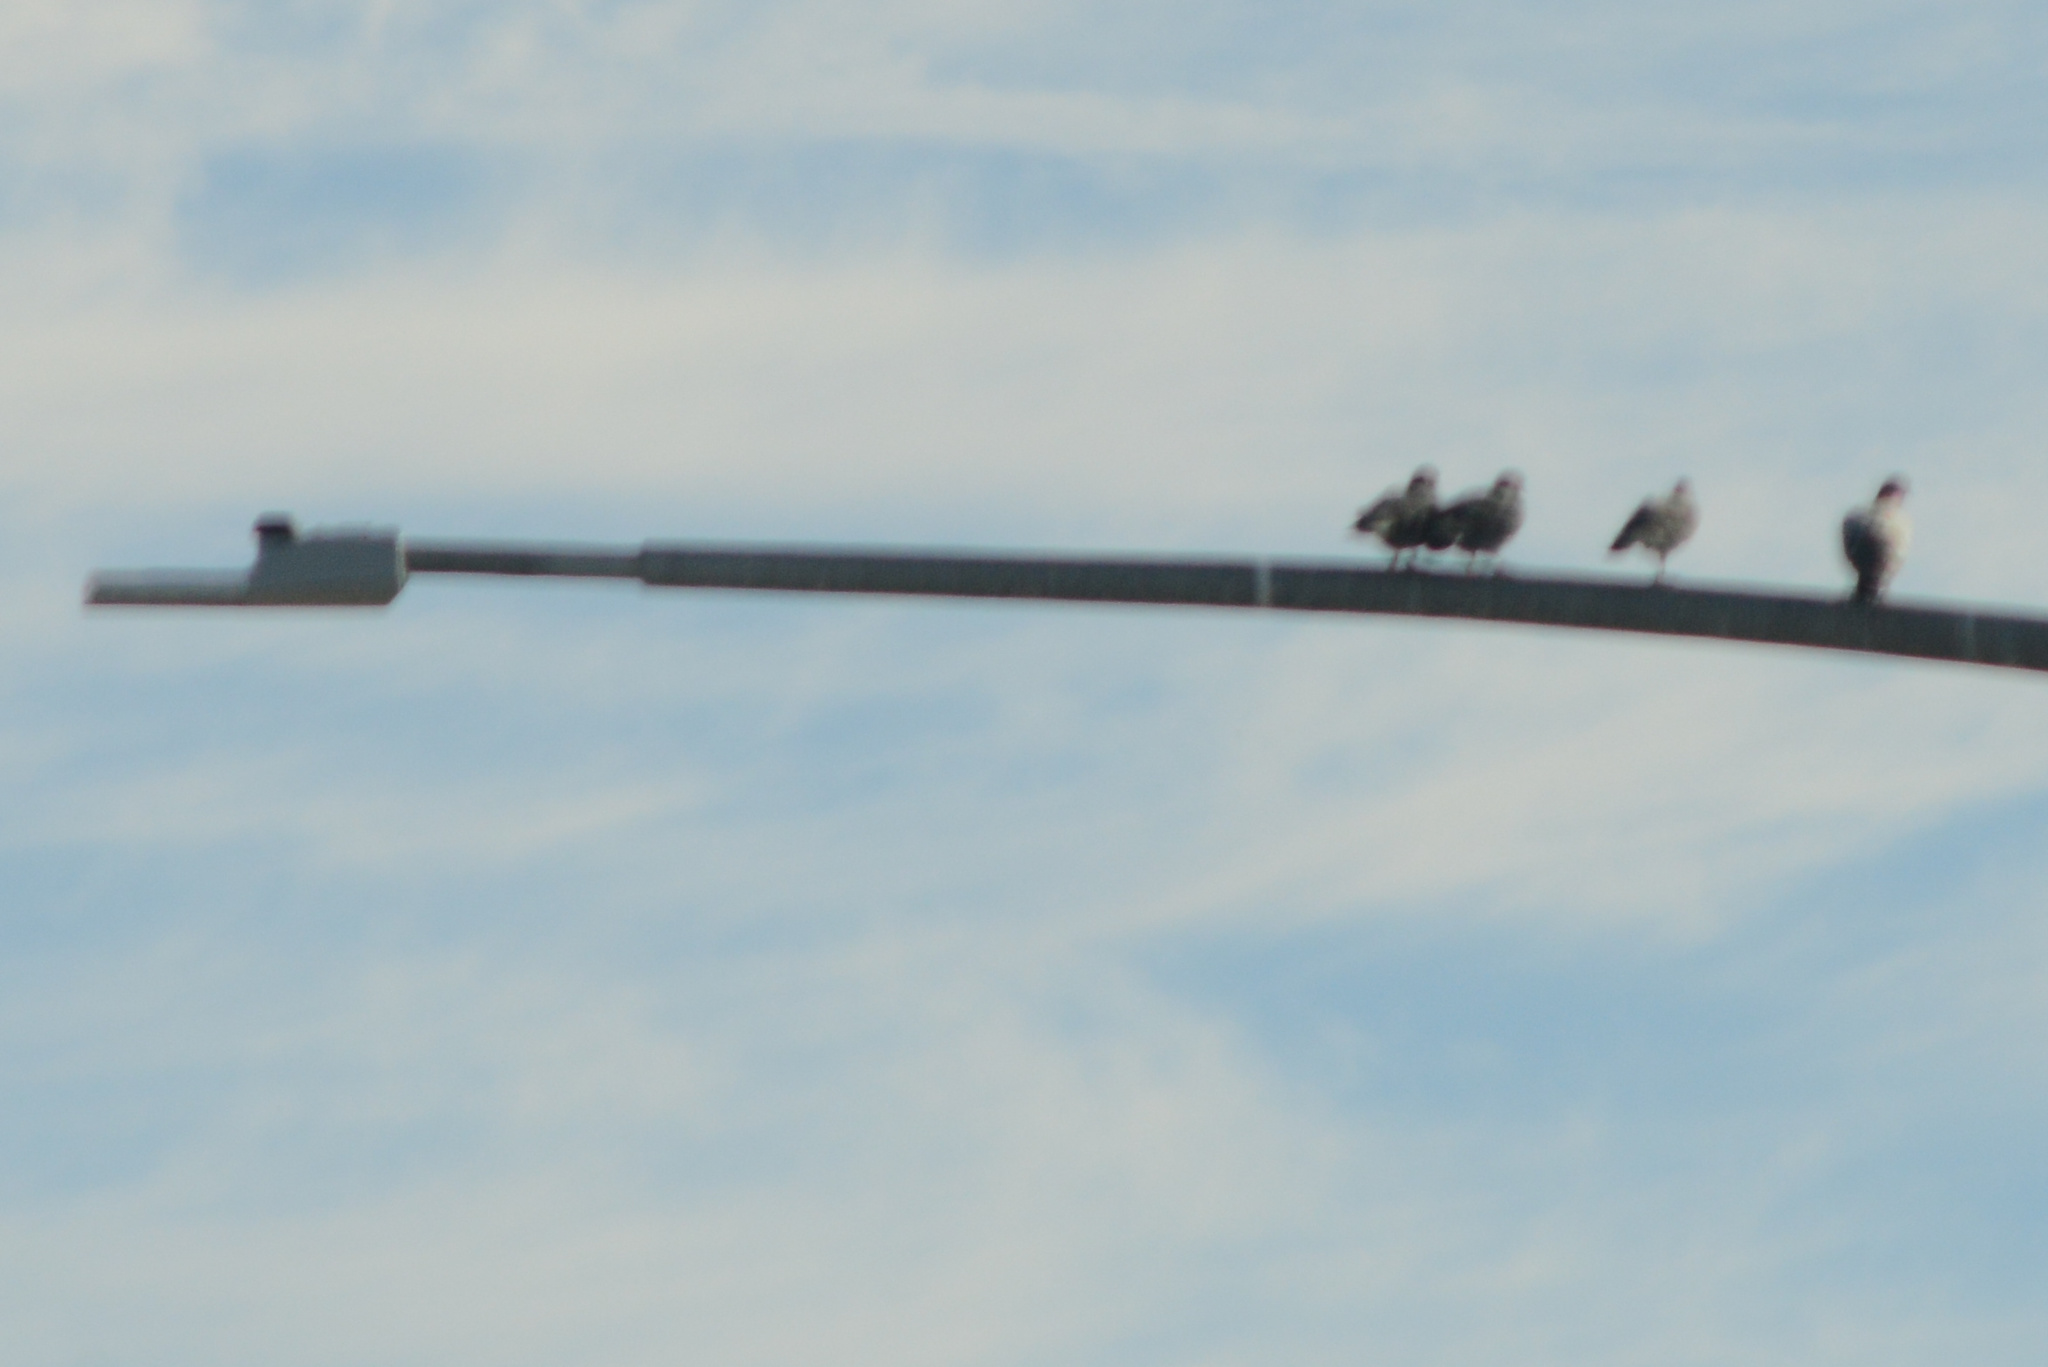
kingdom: Animalia
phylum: Chordata
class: Aves
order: Columbiformes
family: Columbidae
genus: Columba
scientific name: Columba livia
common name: Rock pigeon
